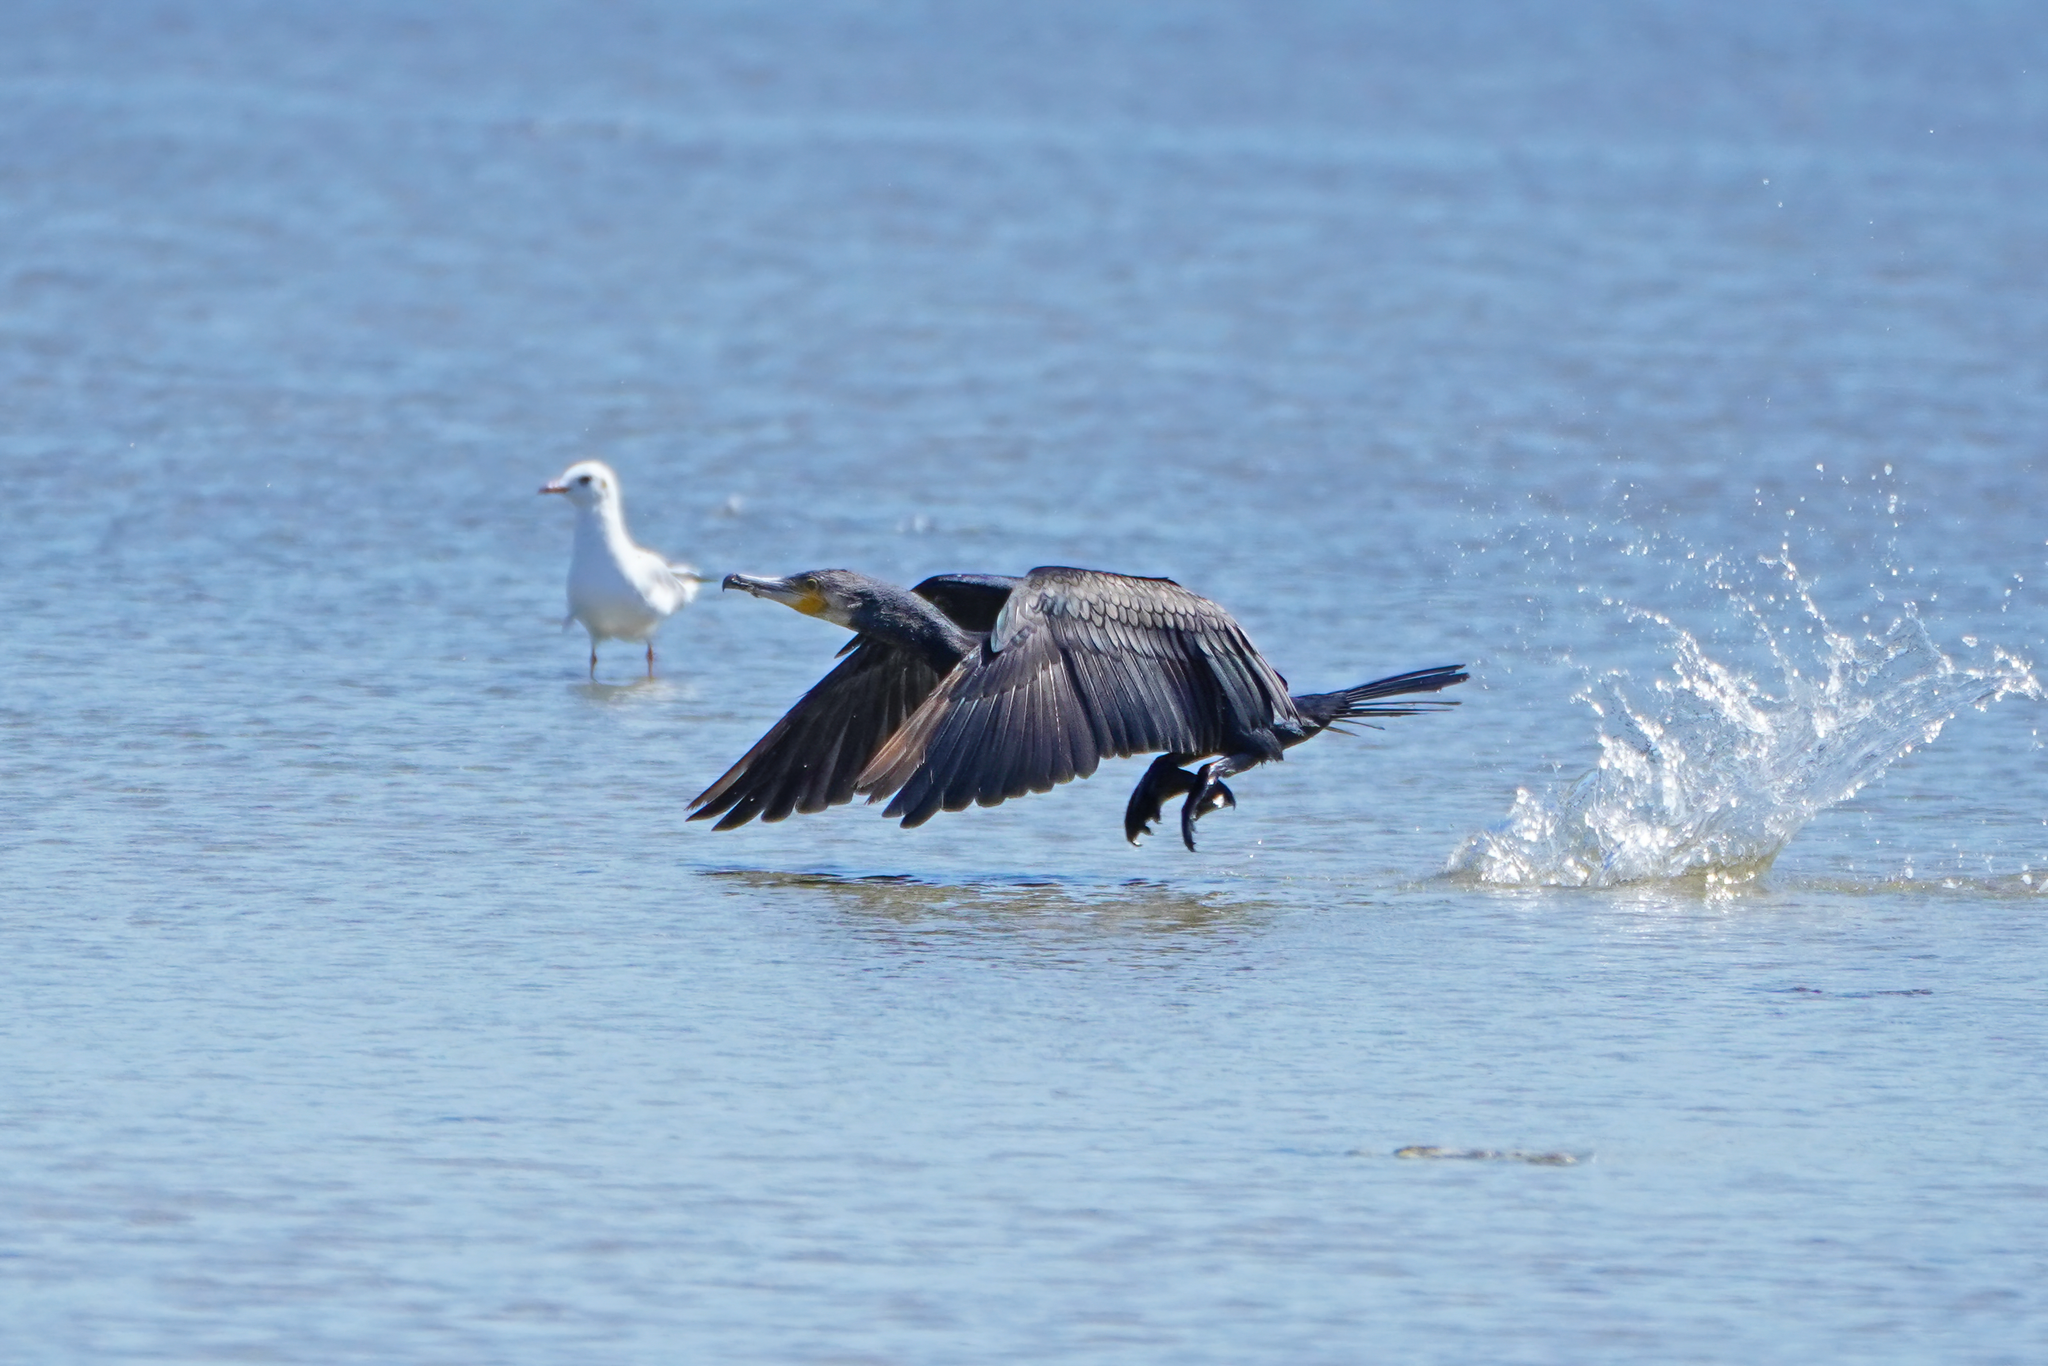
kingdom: Animalia
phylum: Chordata
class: Aves
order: Suliformes
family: Phalacrocoracidae
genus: Phalacrocorax
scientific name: Phalacrocorax carbo
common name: Great cormorant
